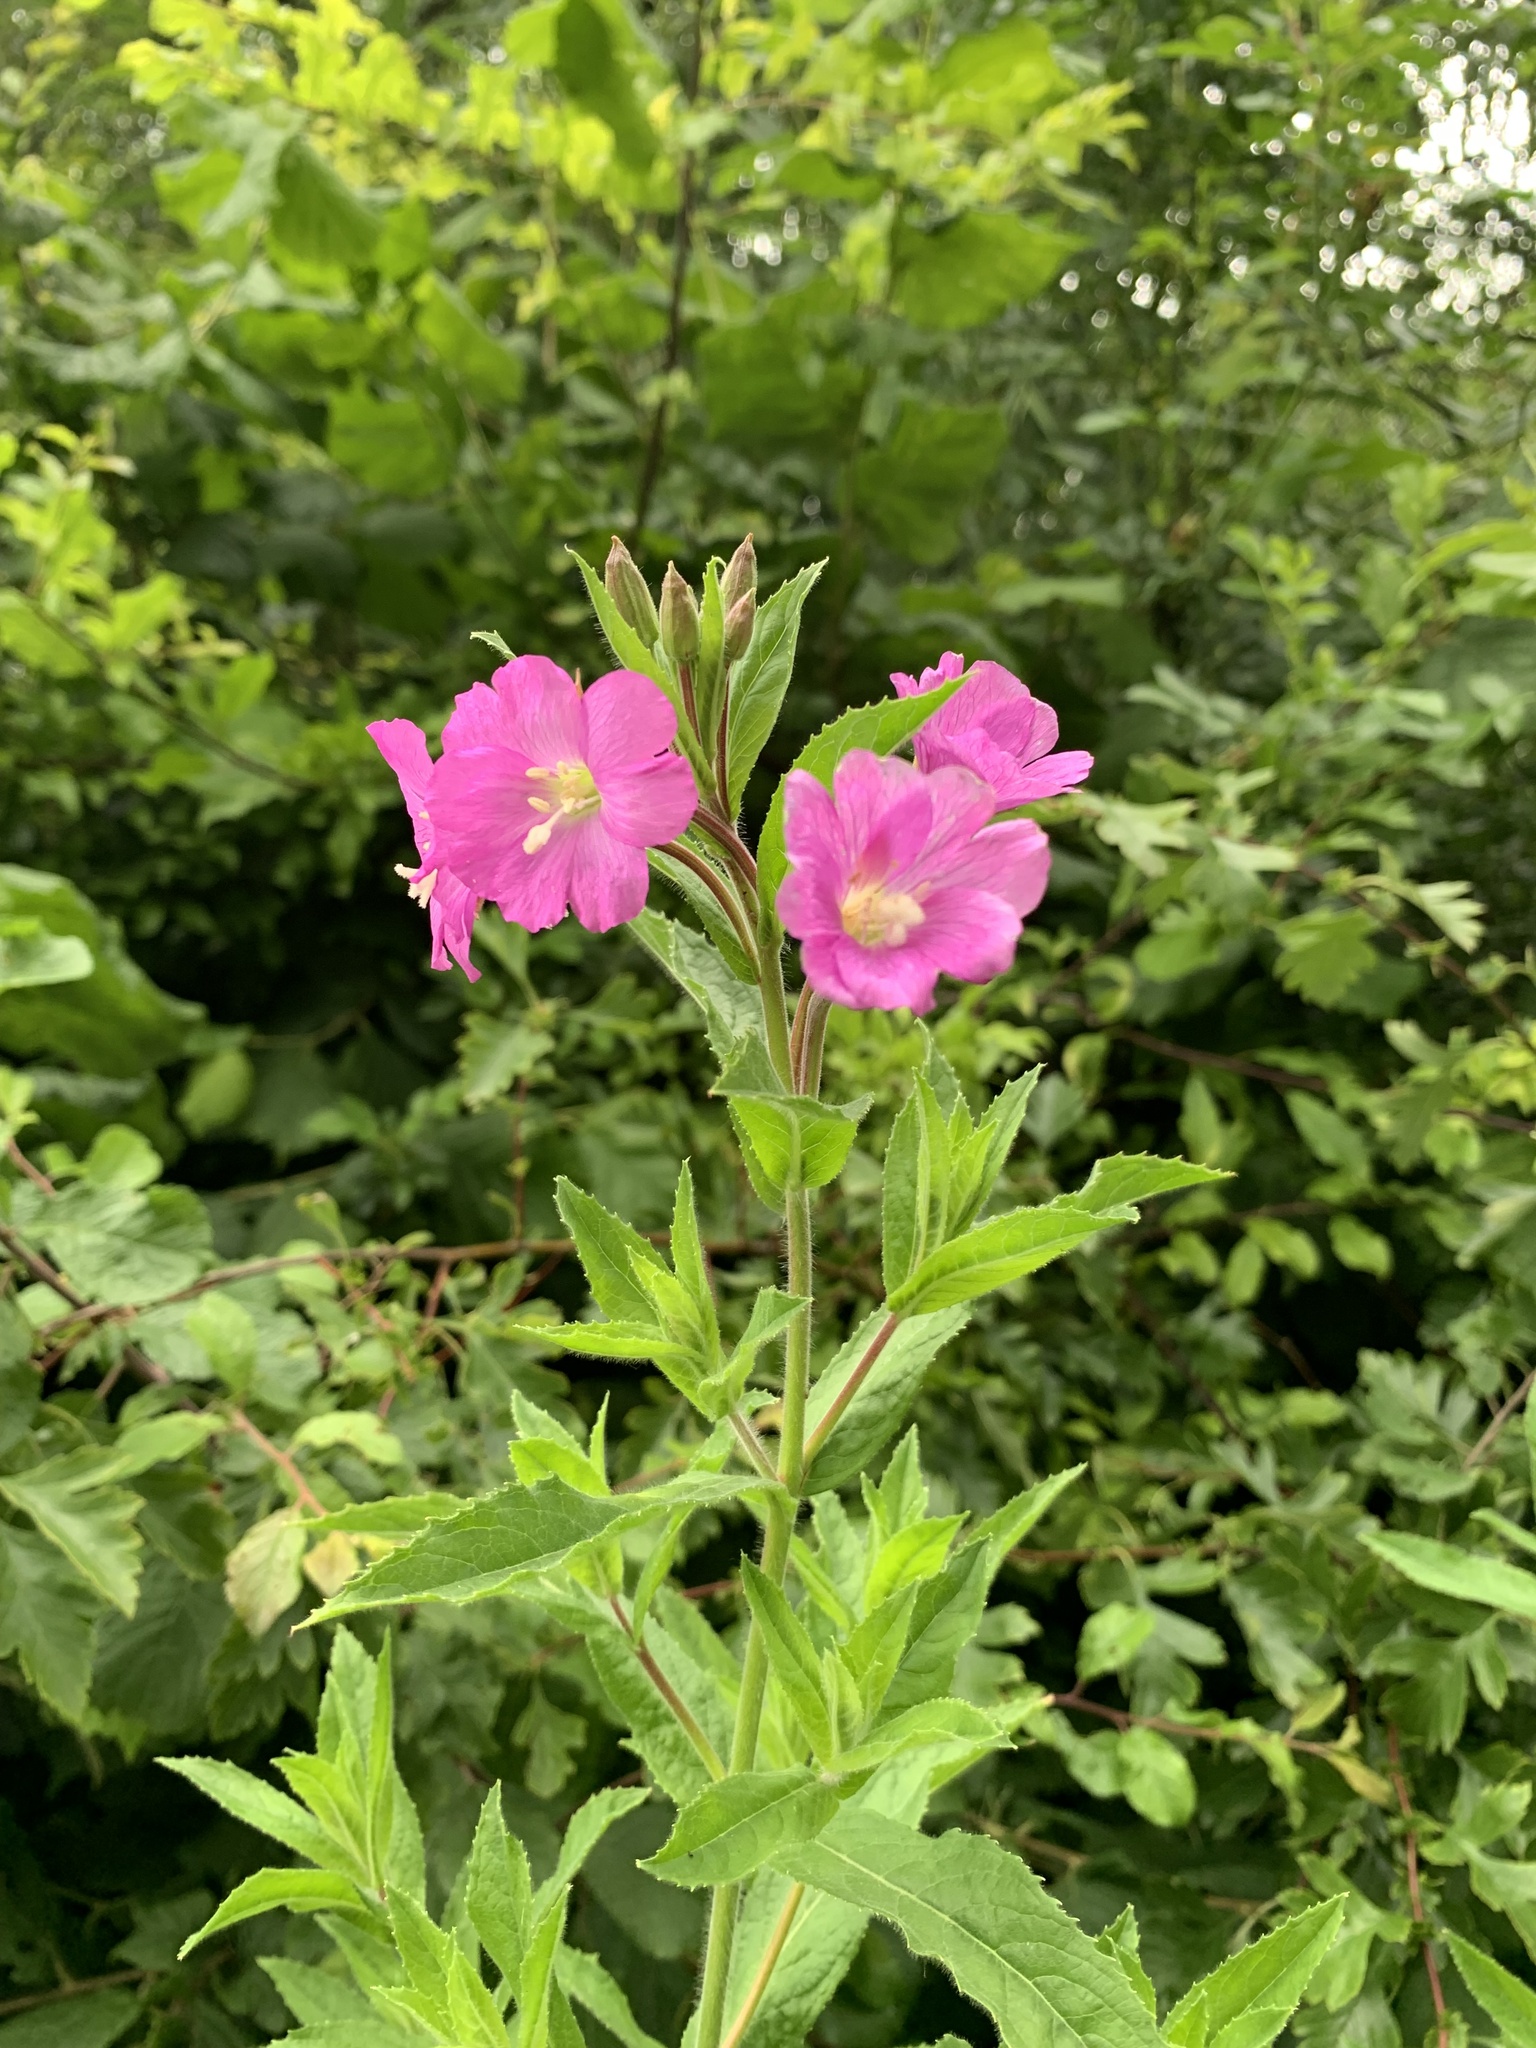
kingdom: Plantae
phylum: Tracheophyta
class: Magnoliopsida
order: Myrtales
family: Onagraceae
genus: Epilobium
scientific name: Epilobium hirsutum
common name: Great willowherb
